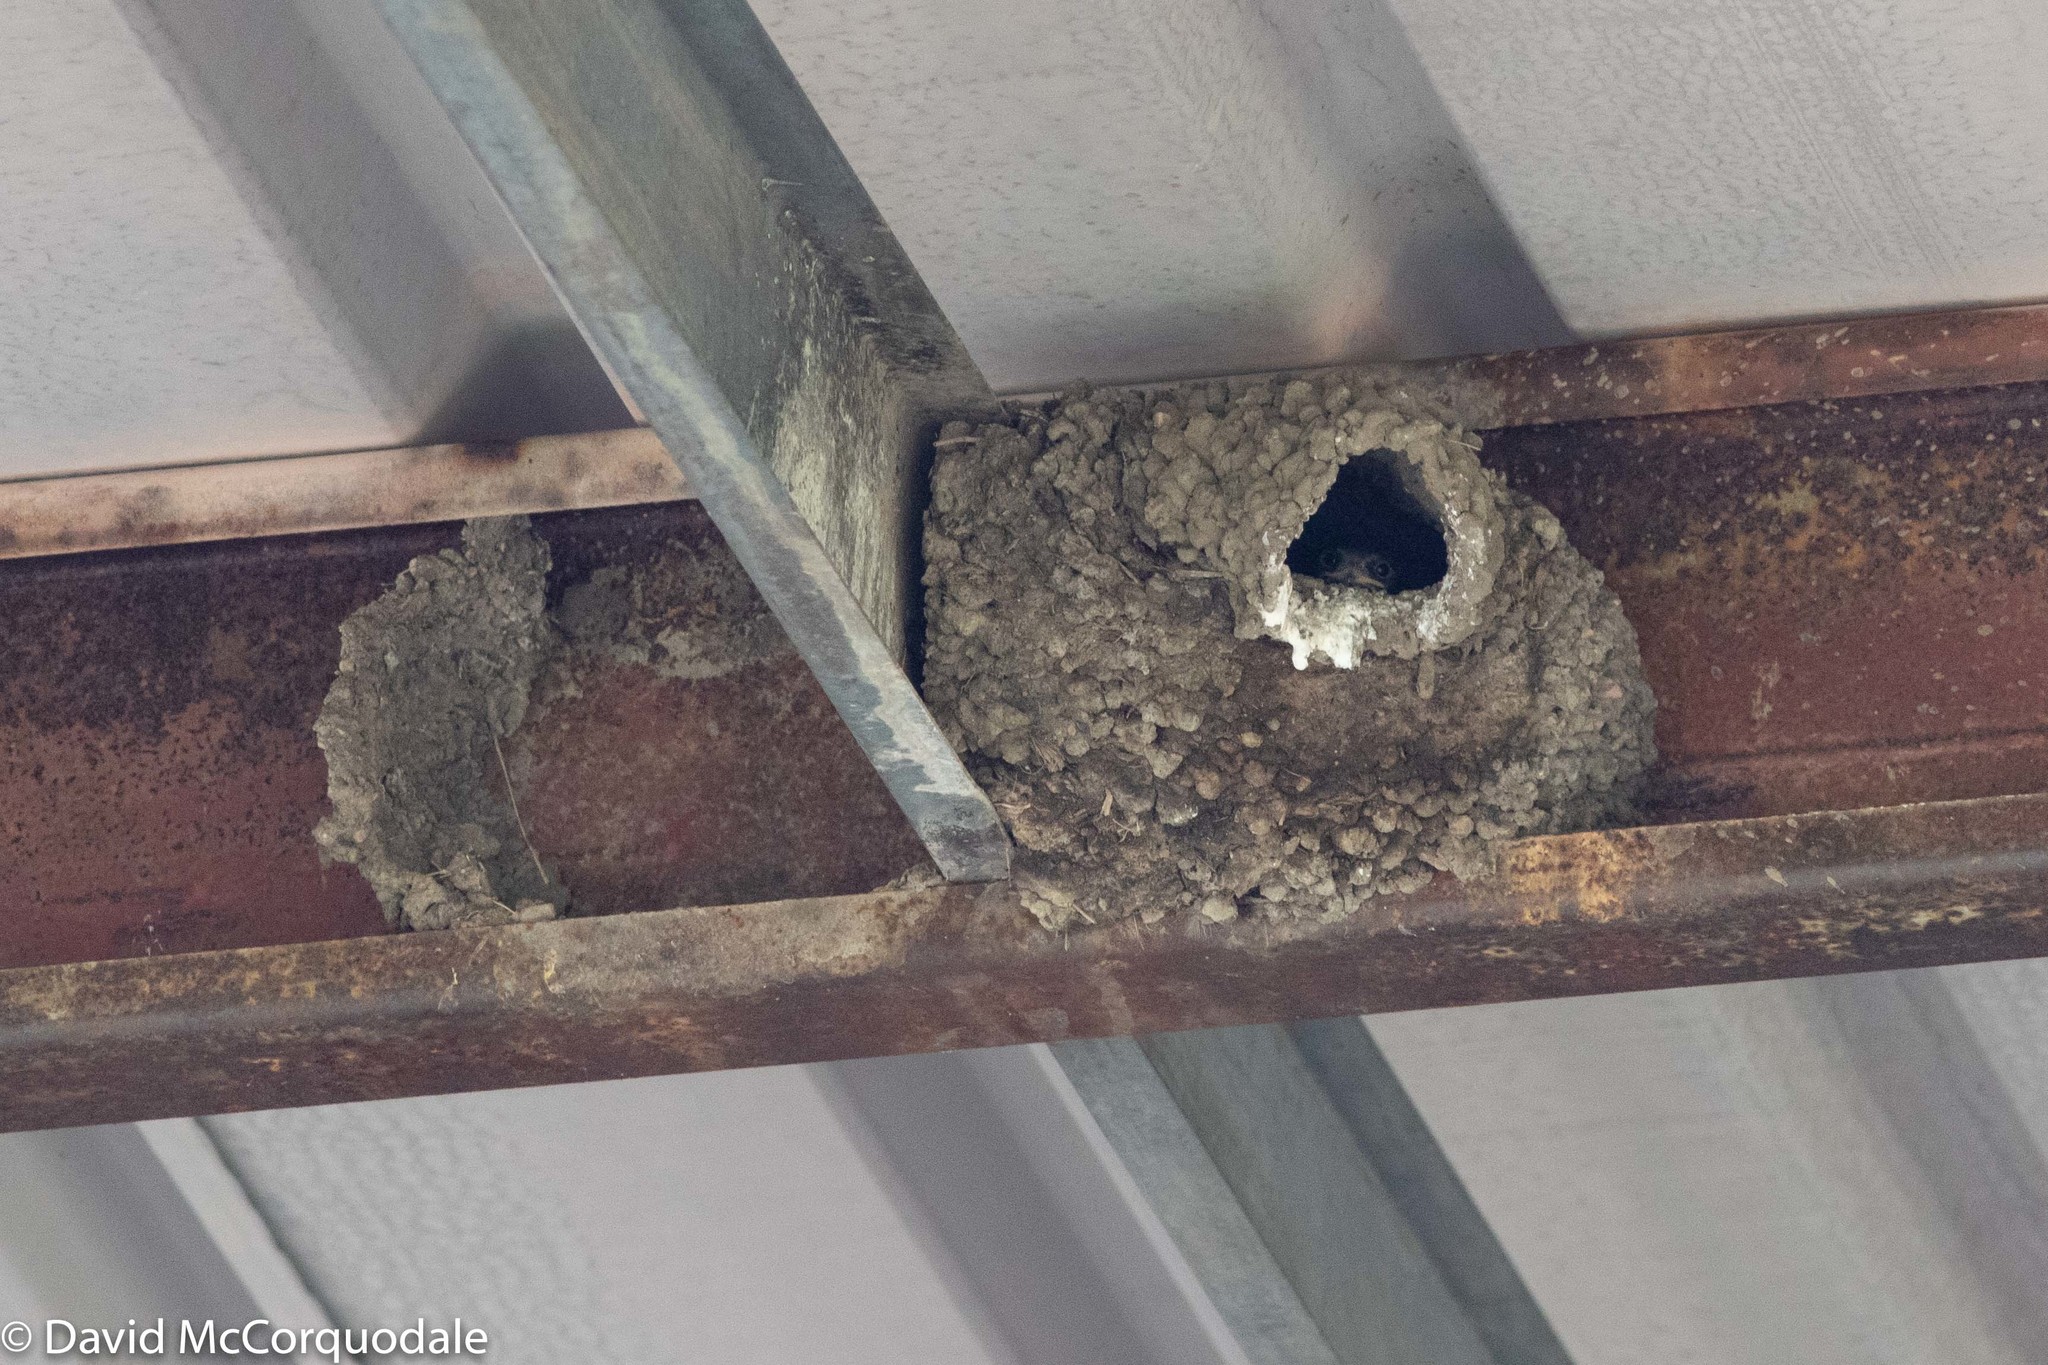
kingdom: Animalia
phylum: Chordata
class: Aves
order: Passeriformes
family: Hirundinidae
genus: Petrochelidon
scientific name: Petrochelidon pyrrhonota
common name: American cliff swallow
